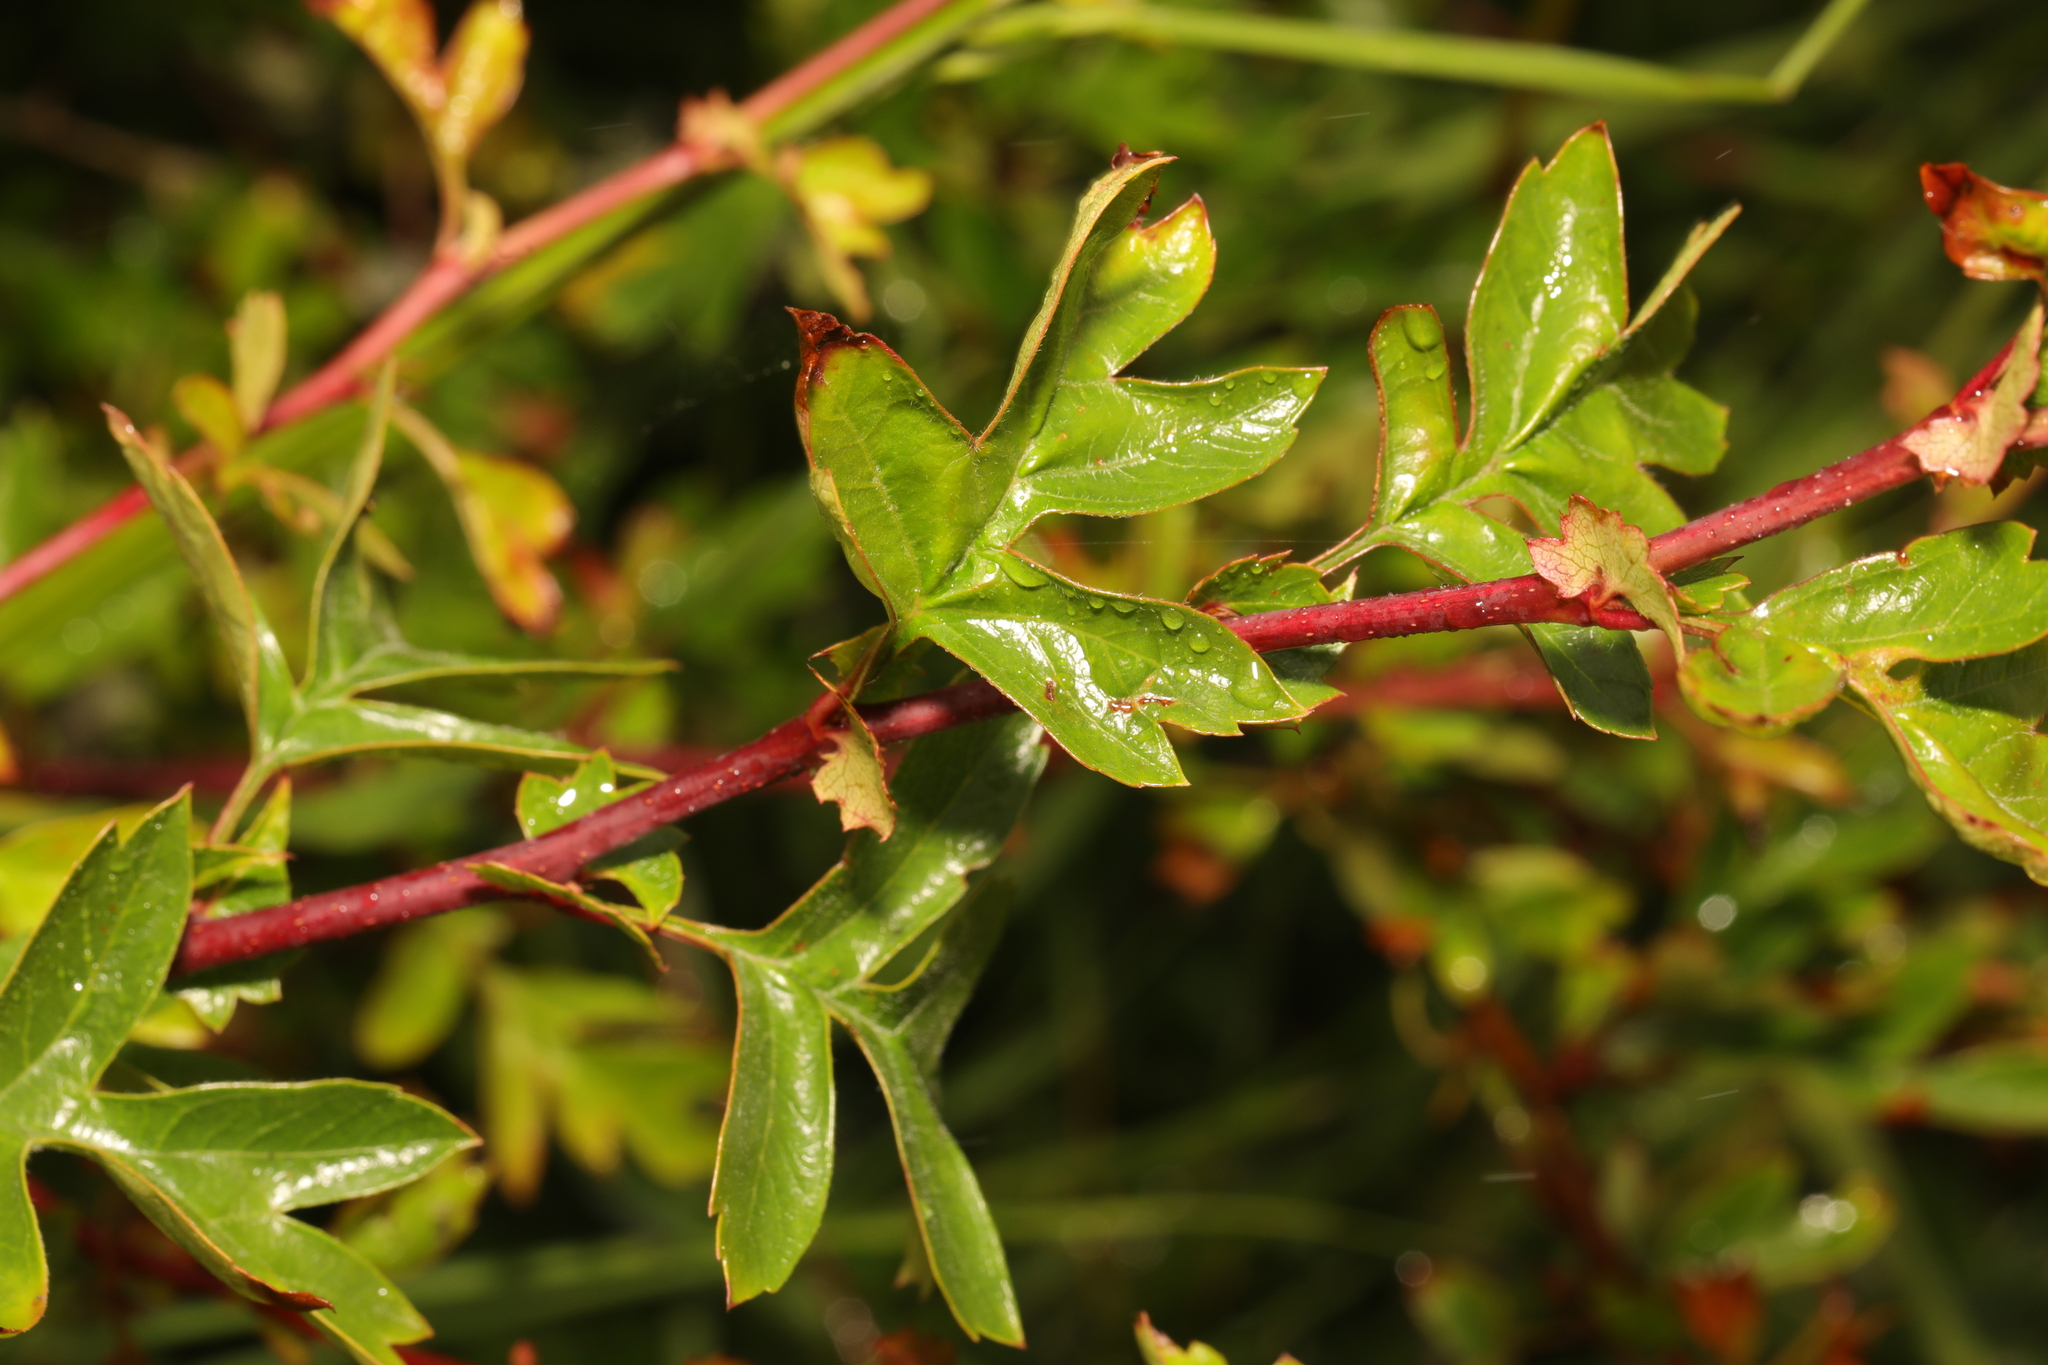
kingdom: Plantae
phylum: Tracheophyta
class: Magnoliopsida
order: Rosales
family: Rosaceae
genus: Crataegus
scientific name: Crataegus monogyna
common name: Hawthorn
